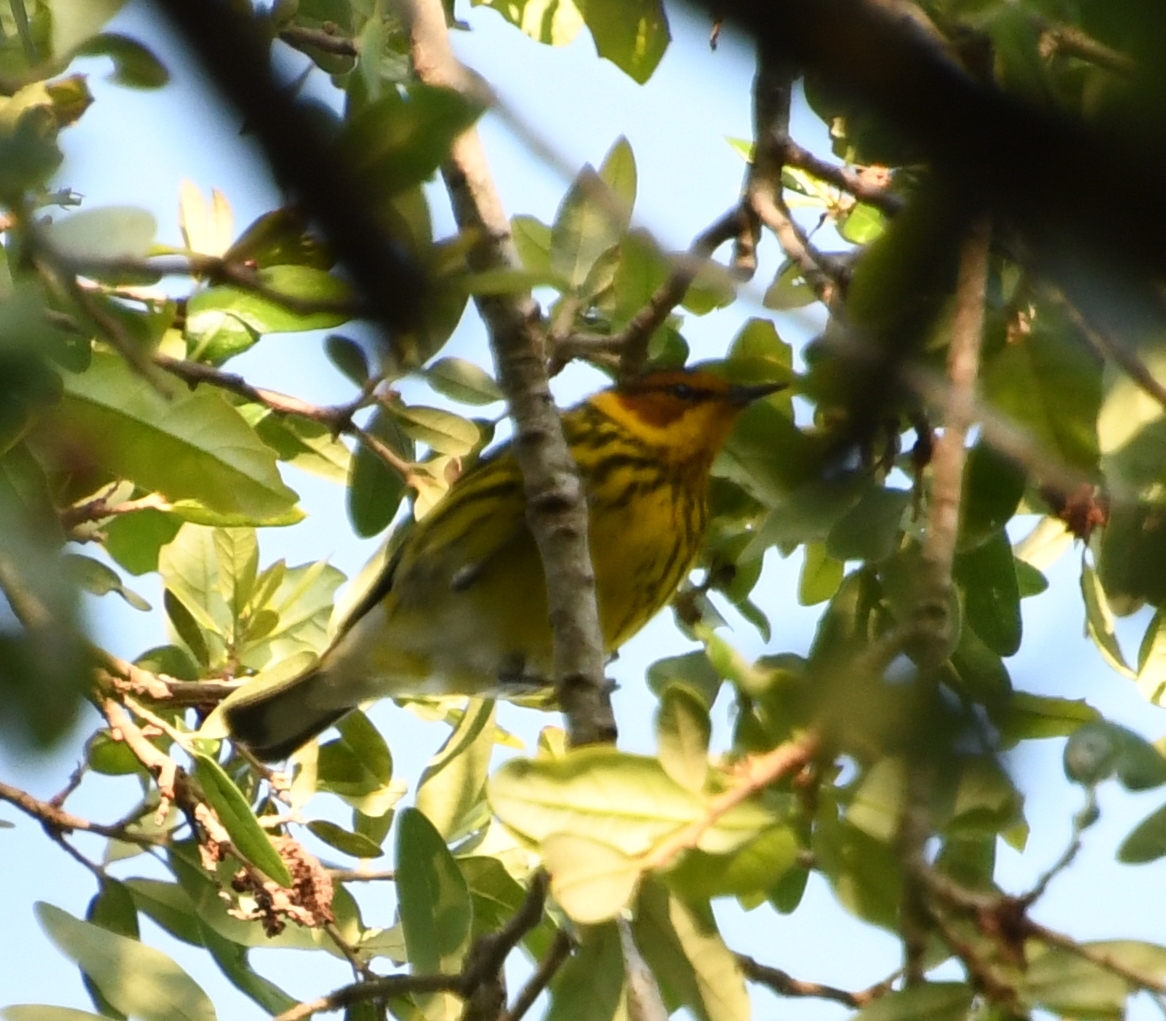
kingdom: Animalia
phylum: Chordata
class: Aves
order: Passeriformes
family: Parulidae
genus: Setophaga
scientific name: Setophaga tigrina
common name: Cape may warbler
